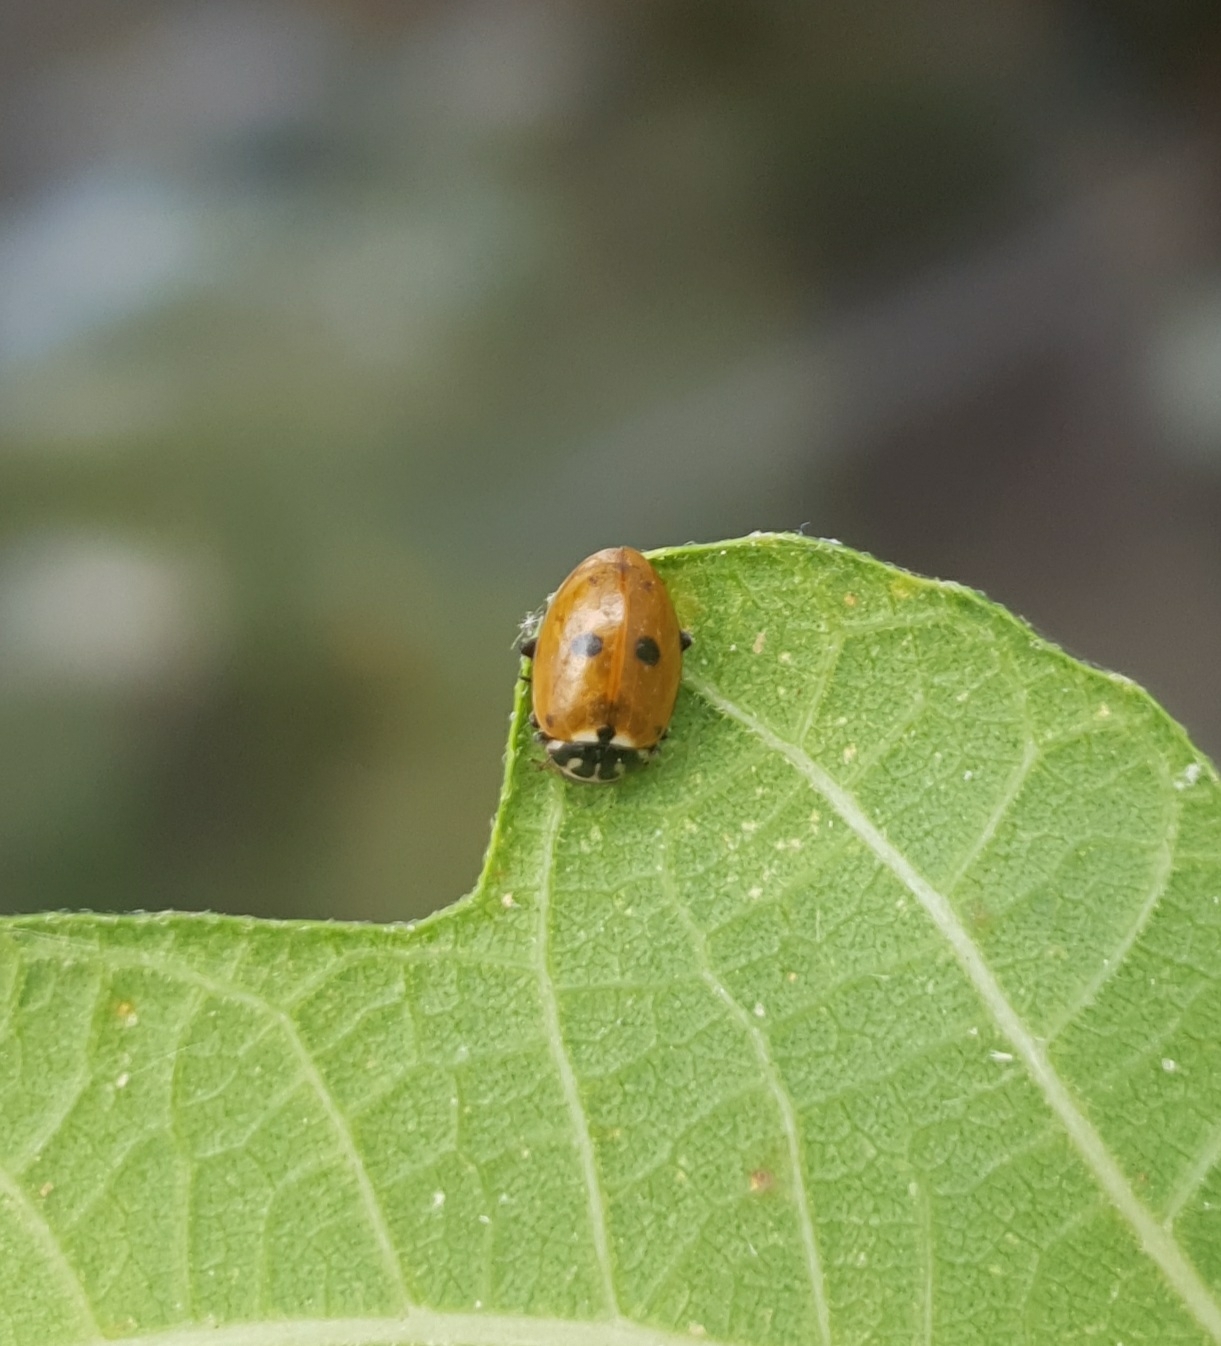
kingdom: Animalia
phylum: Arthropoda
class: Insecta
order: Coleoptera
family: Coccinellidae
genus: Hippodamia
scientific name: Hippodamia variegata
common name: Ladybird beetle
